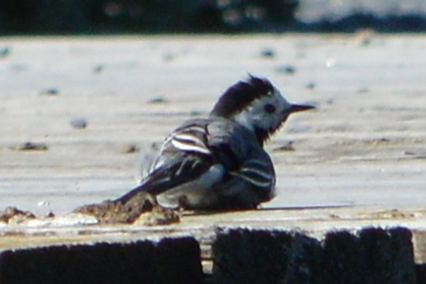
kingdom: Animalia
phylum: Chordata
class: Aves
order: Passeriformes
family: Motacillidae
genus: Motacilla
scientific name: Motacilla alba
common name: White wagtail
